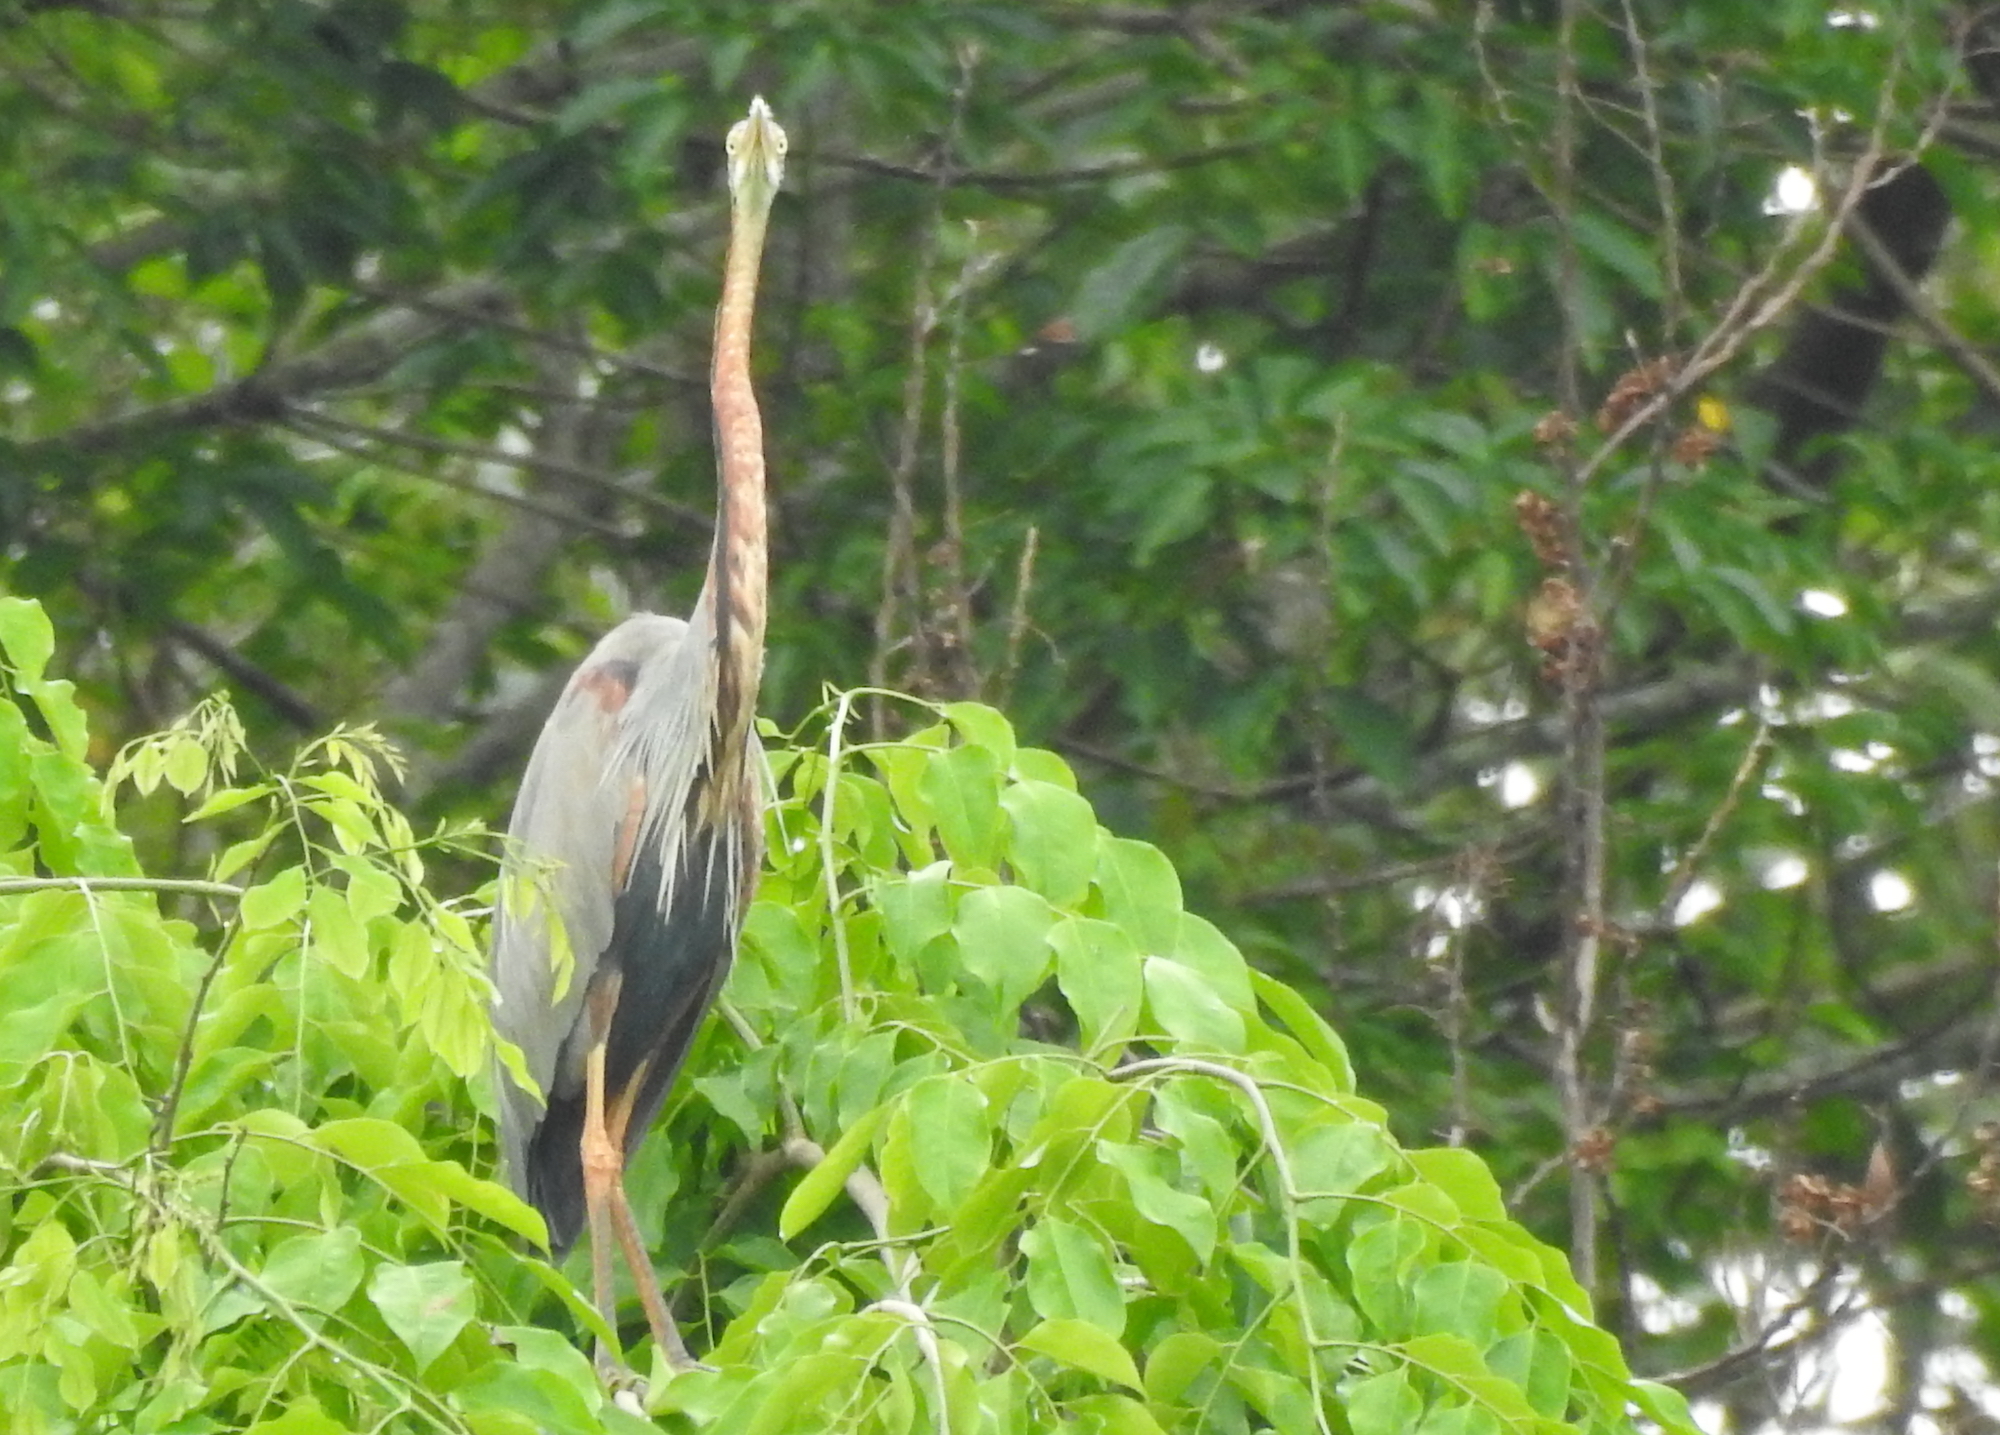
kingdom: Animalia
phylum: Chordata
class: Aves
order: Pelecaniformes
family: Ardeidae
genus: Ardea
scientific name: Ardea purpurea
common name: Purple heron
